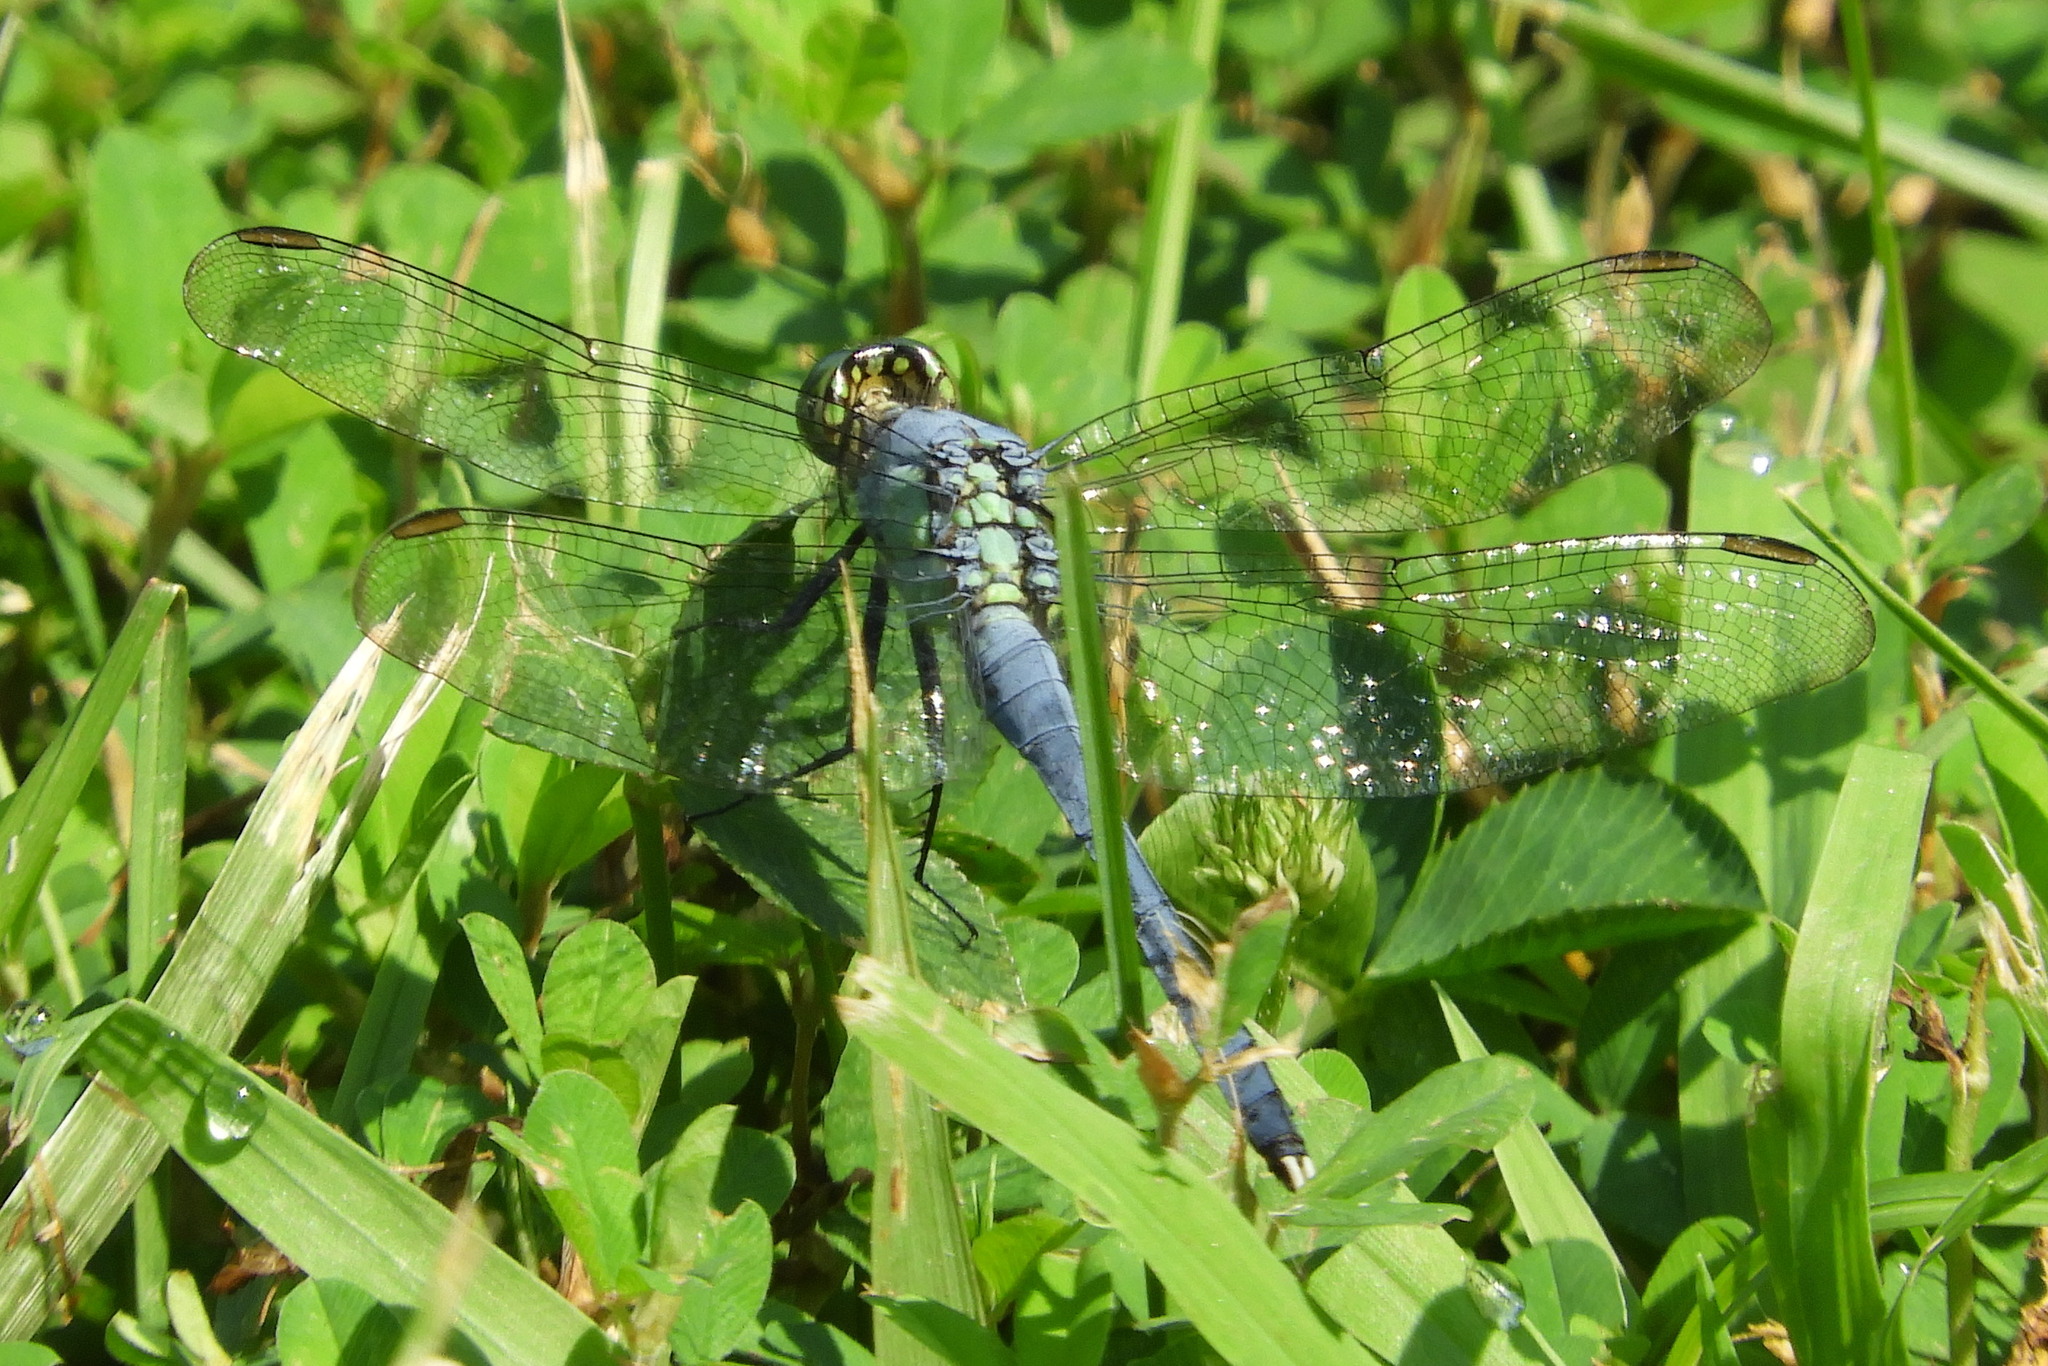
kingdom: Animalia
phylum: Arthropoda
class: Insecta
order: Odonata
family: Libellulidae
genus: Erythemis
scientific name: Erythemis simplicicollis
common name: Eastern pondhawk
